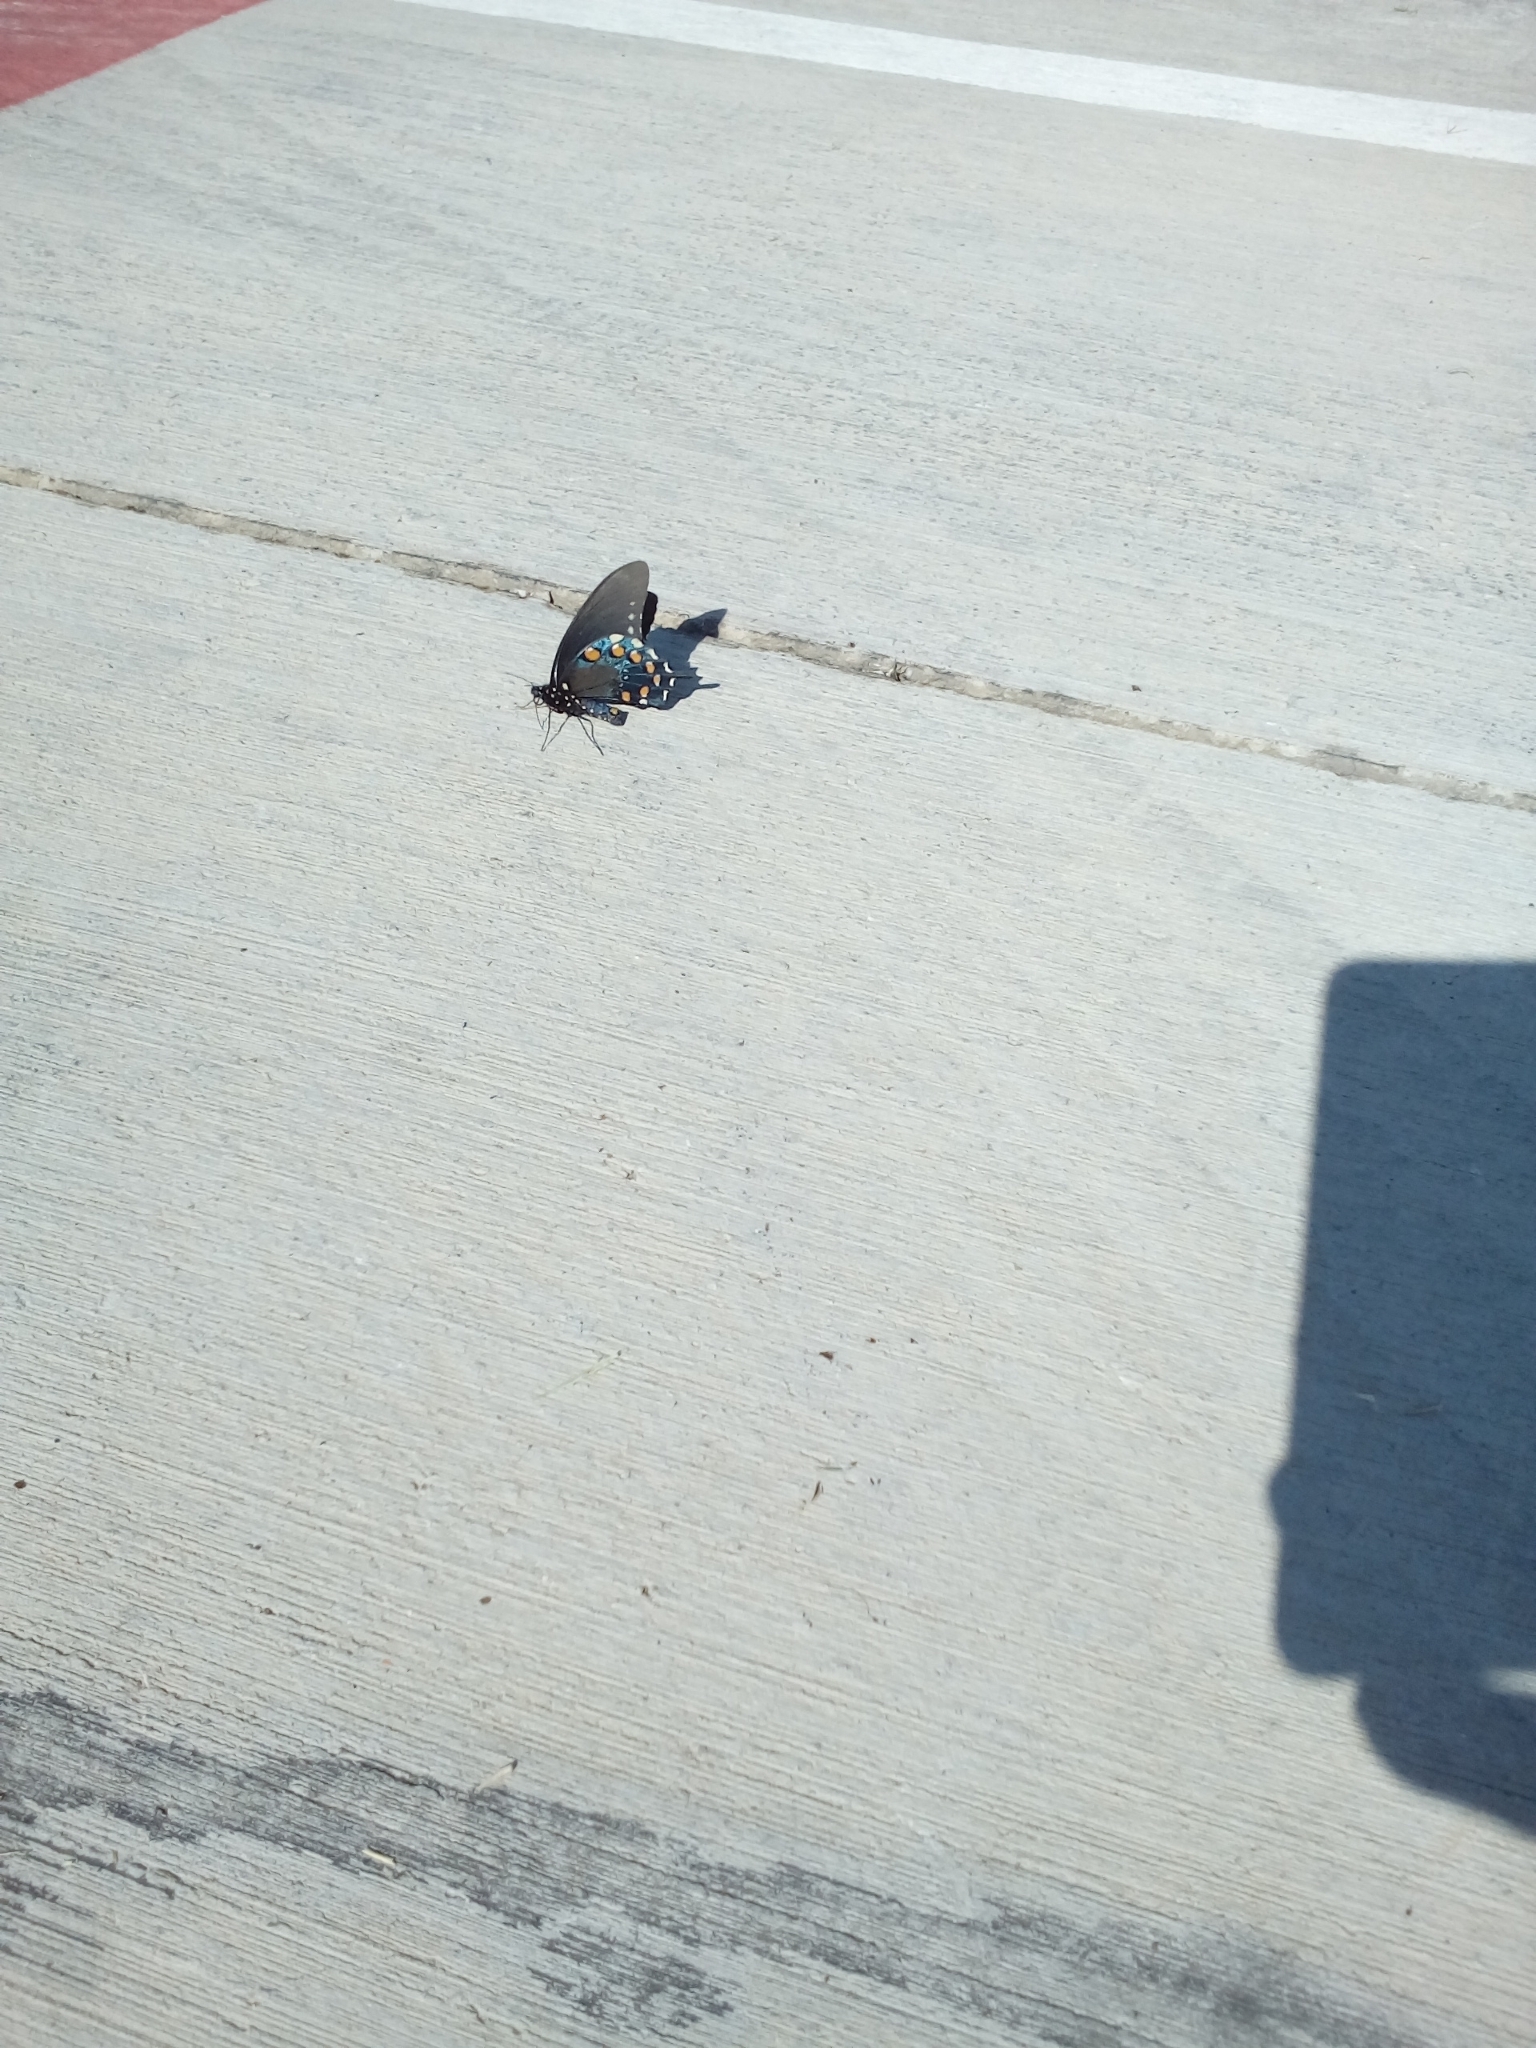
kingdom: Animalia
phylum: Arthropoda
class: Insecta
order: Lepidoptera
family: Papilionidae
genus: Battus
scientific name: Battus philenor
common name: Pipevine swallowtail
